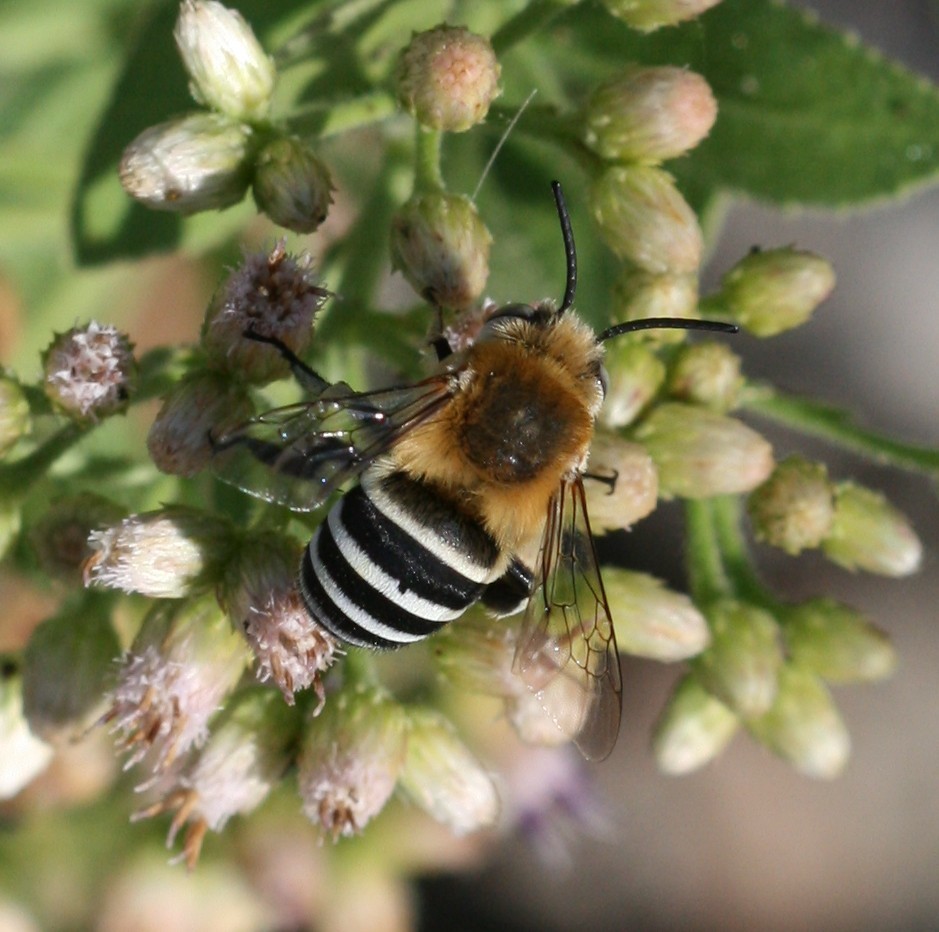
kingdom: Animalia
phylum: Arthropoda
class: Insecta
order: Hymenoptera
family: Apidae
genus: Amegilla
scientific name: Amegilla quadrifasciata
